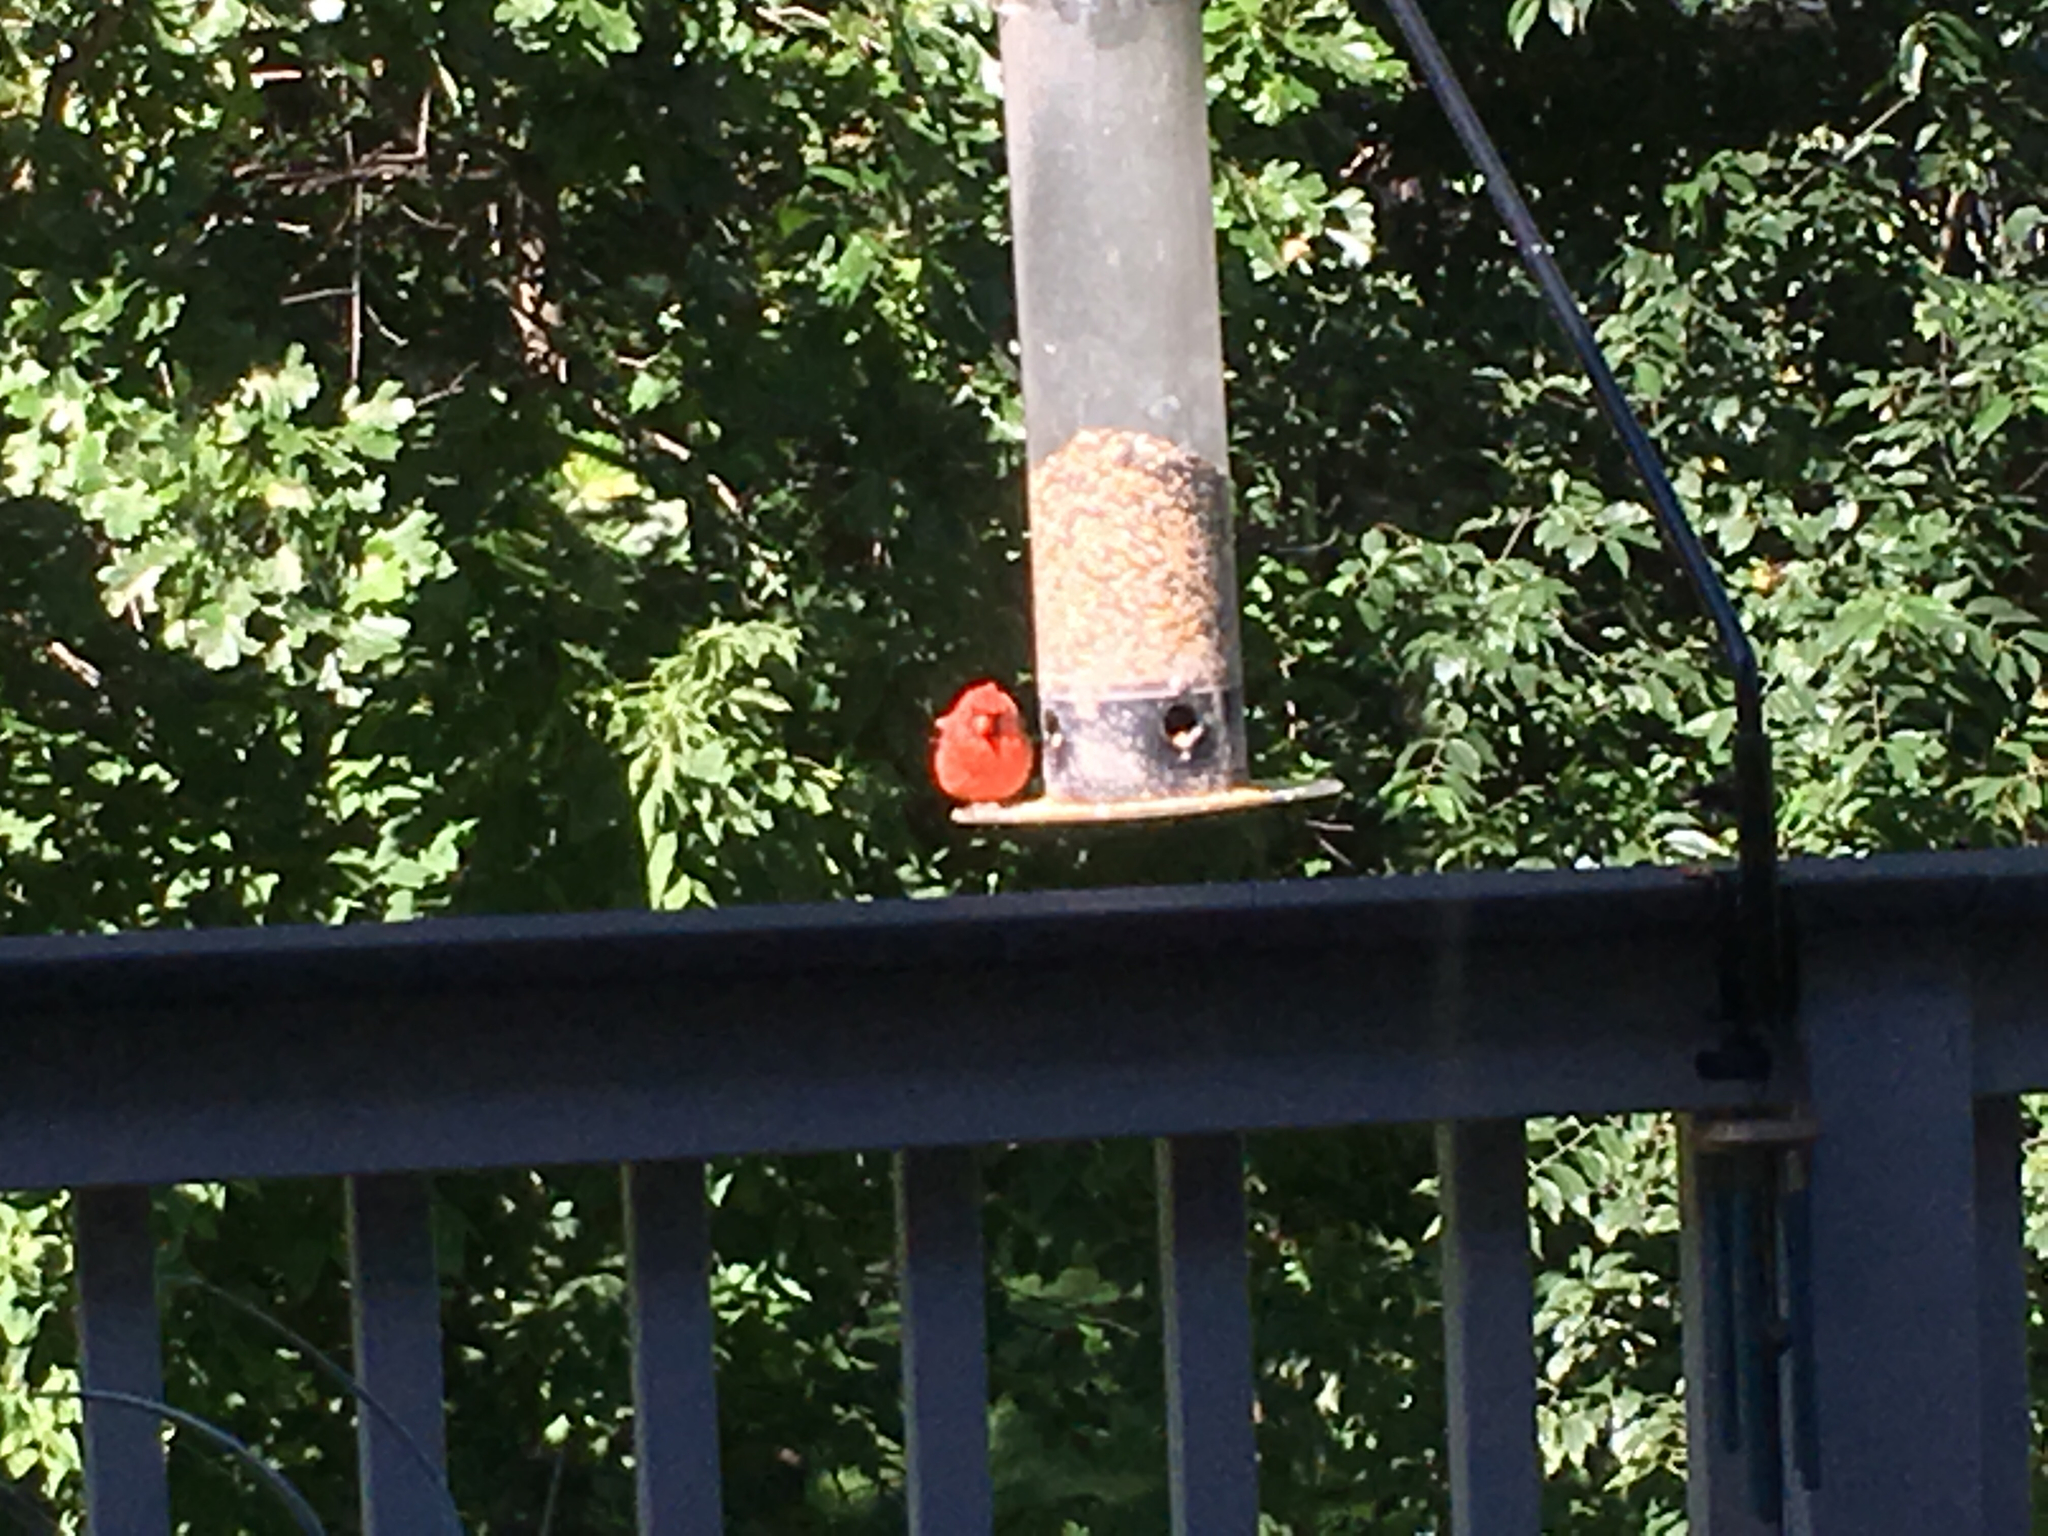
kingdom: Animalia
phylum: Chordata
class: Aves
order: Passeriformes
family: Cardinalidae
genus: Cardinalis
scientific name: Cardinalis cardinalis
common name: Northern cardinal
